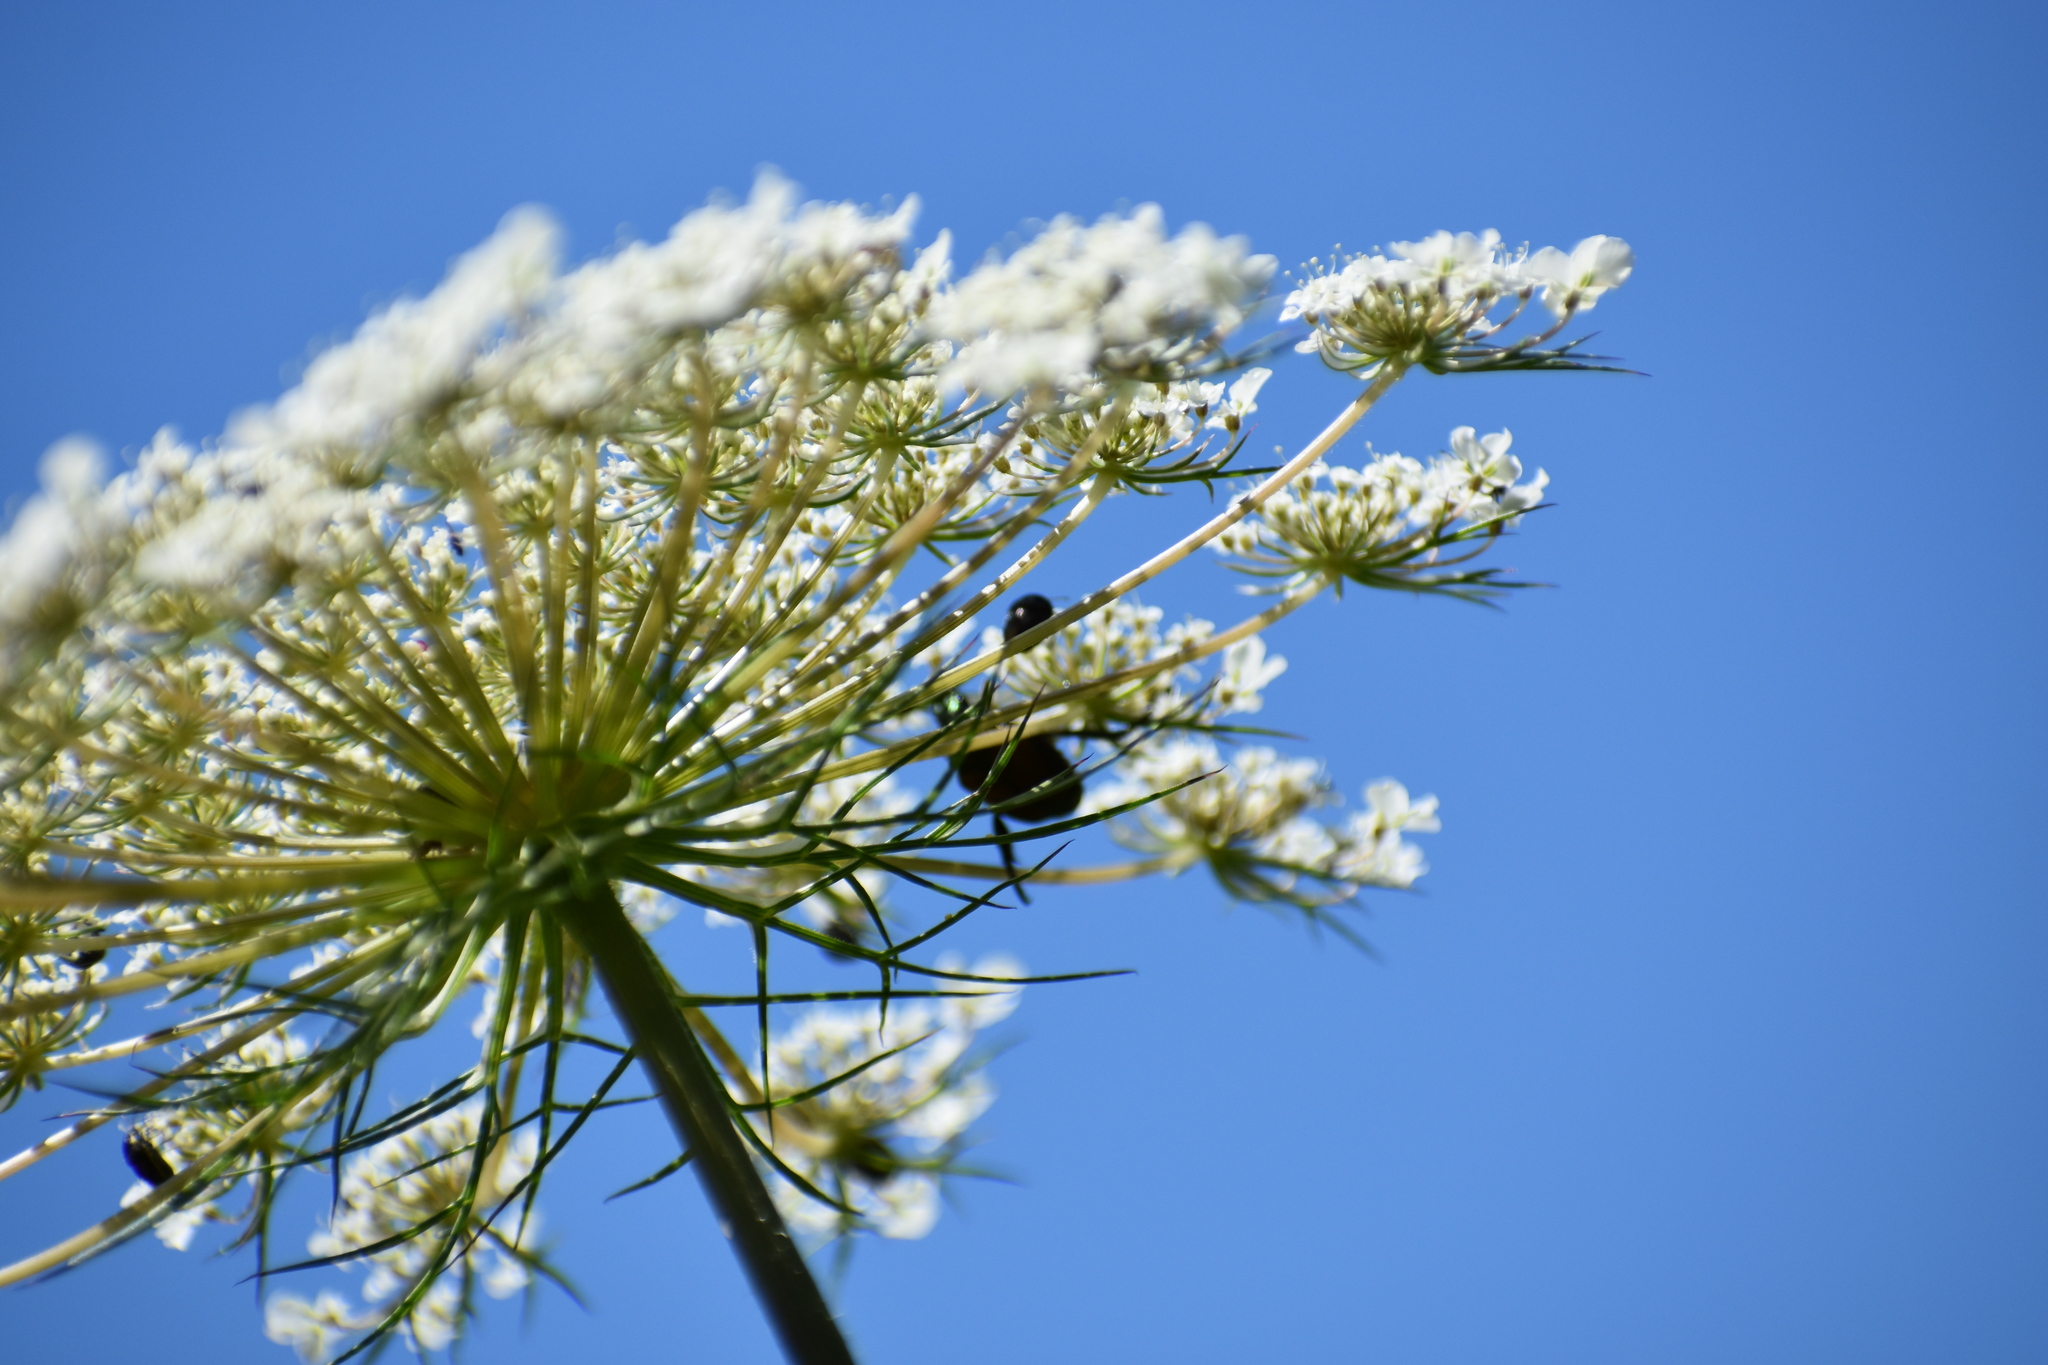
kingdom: Animalia
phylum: Arthropoda
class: Insecta
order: Coleoptera
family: Scarabaeidae
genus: Popillia
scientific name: Popillia japonica
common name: Japanese beetle
